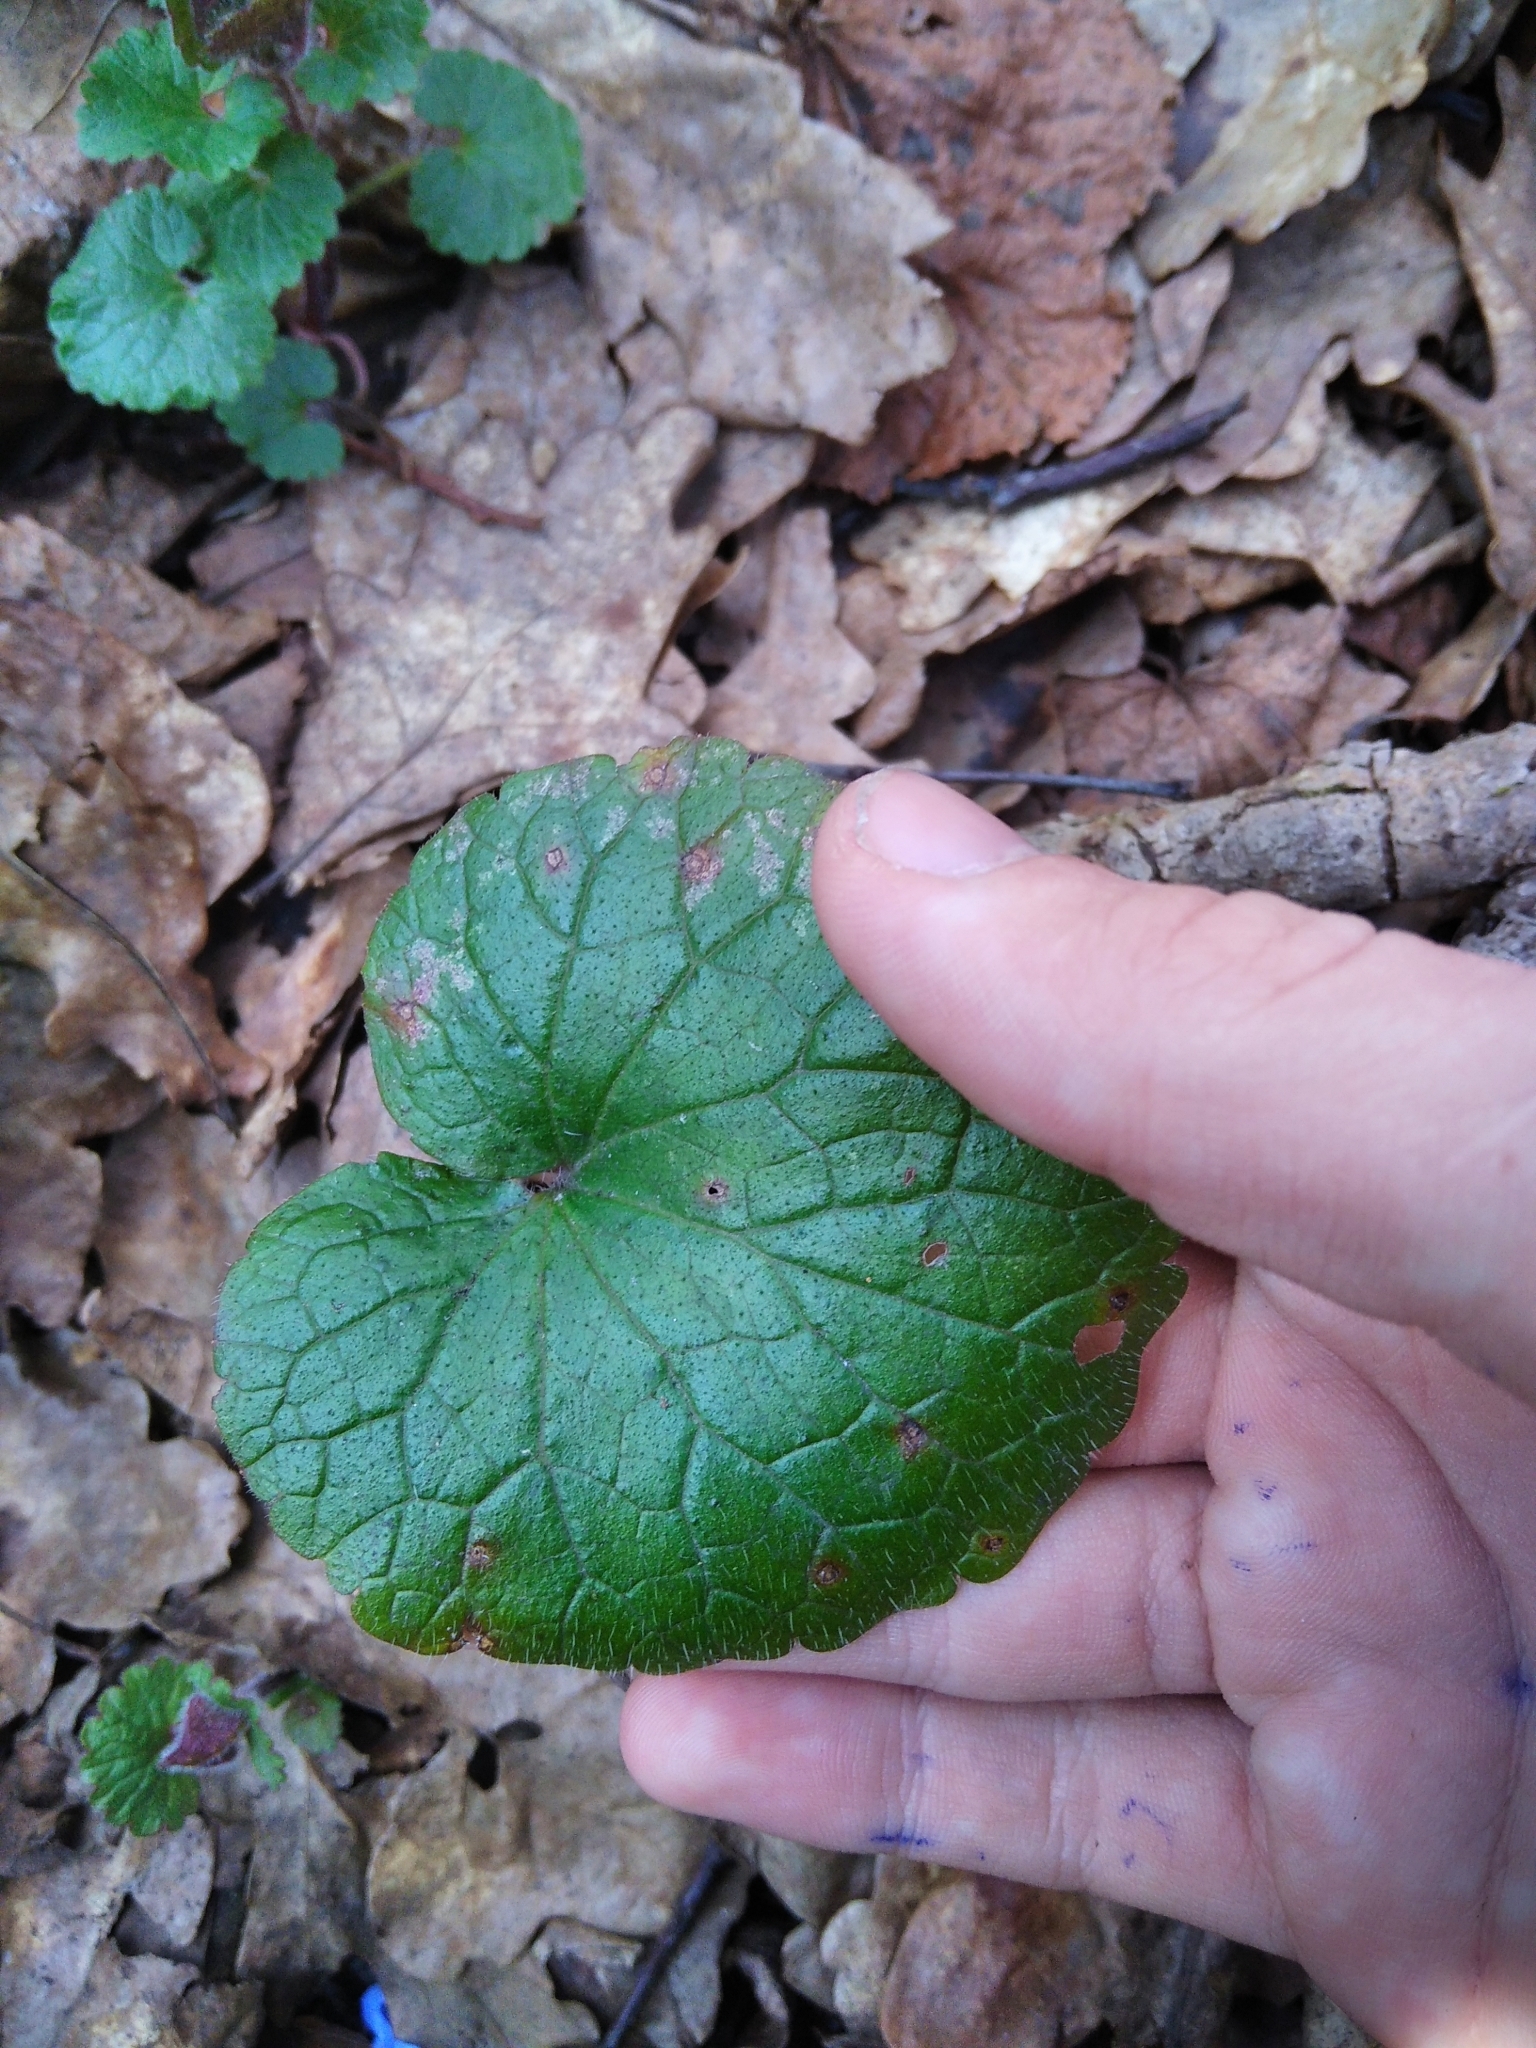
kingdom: Plantae
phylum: Tracheophyta
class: Magnoliopsida
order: Lamiales
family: Lamiaceae
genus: Glechoma
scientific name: Glechoma hederacea
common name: Ground ivy
